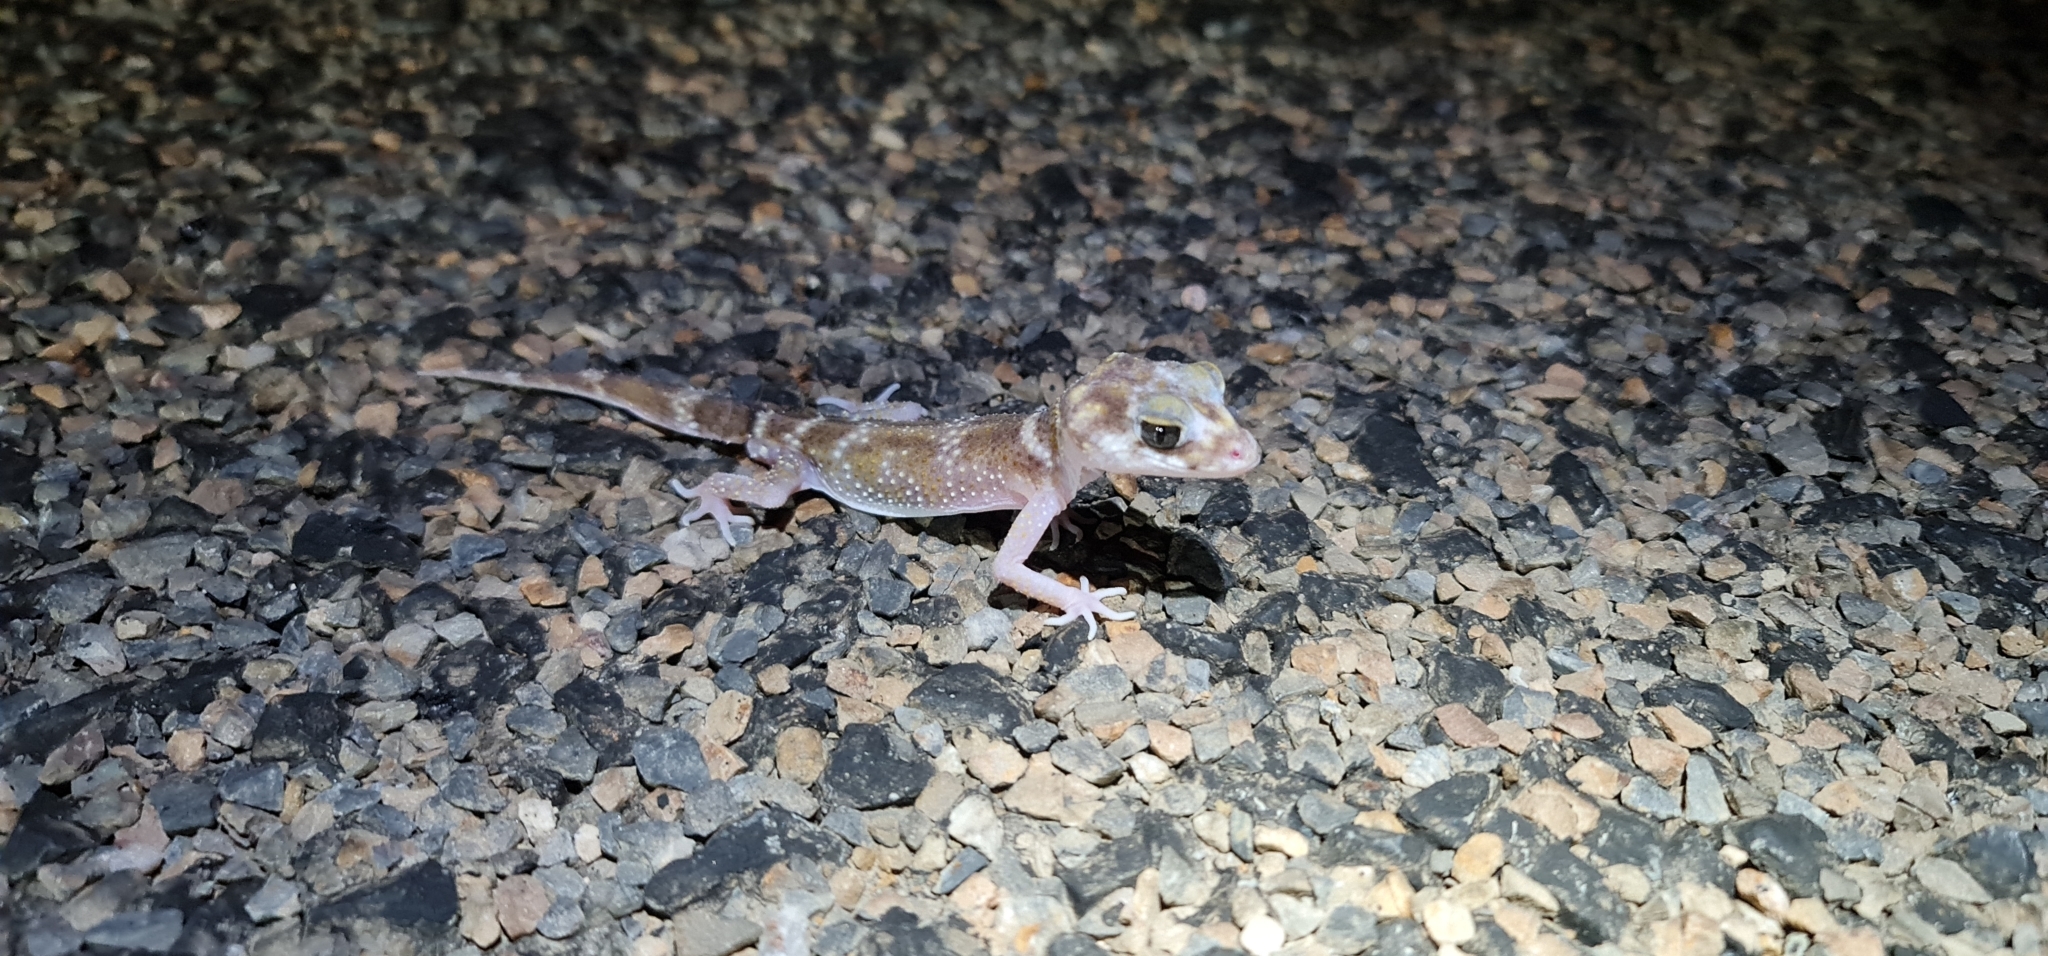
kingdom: Animalia
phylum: Chordata
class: Squamata
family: Carphodactylidae
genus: Underwoodisaurus
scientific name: Underwoodisaurus milii
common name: Barking gecko
